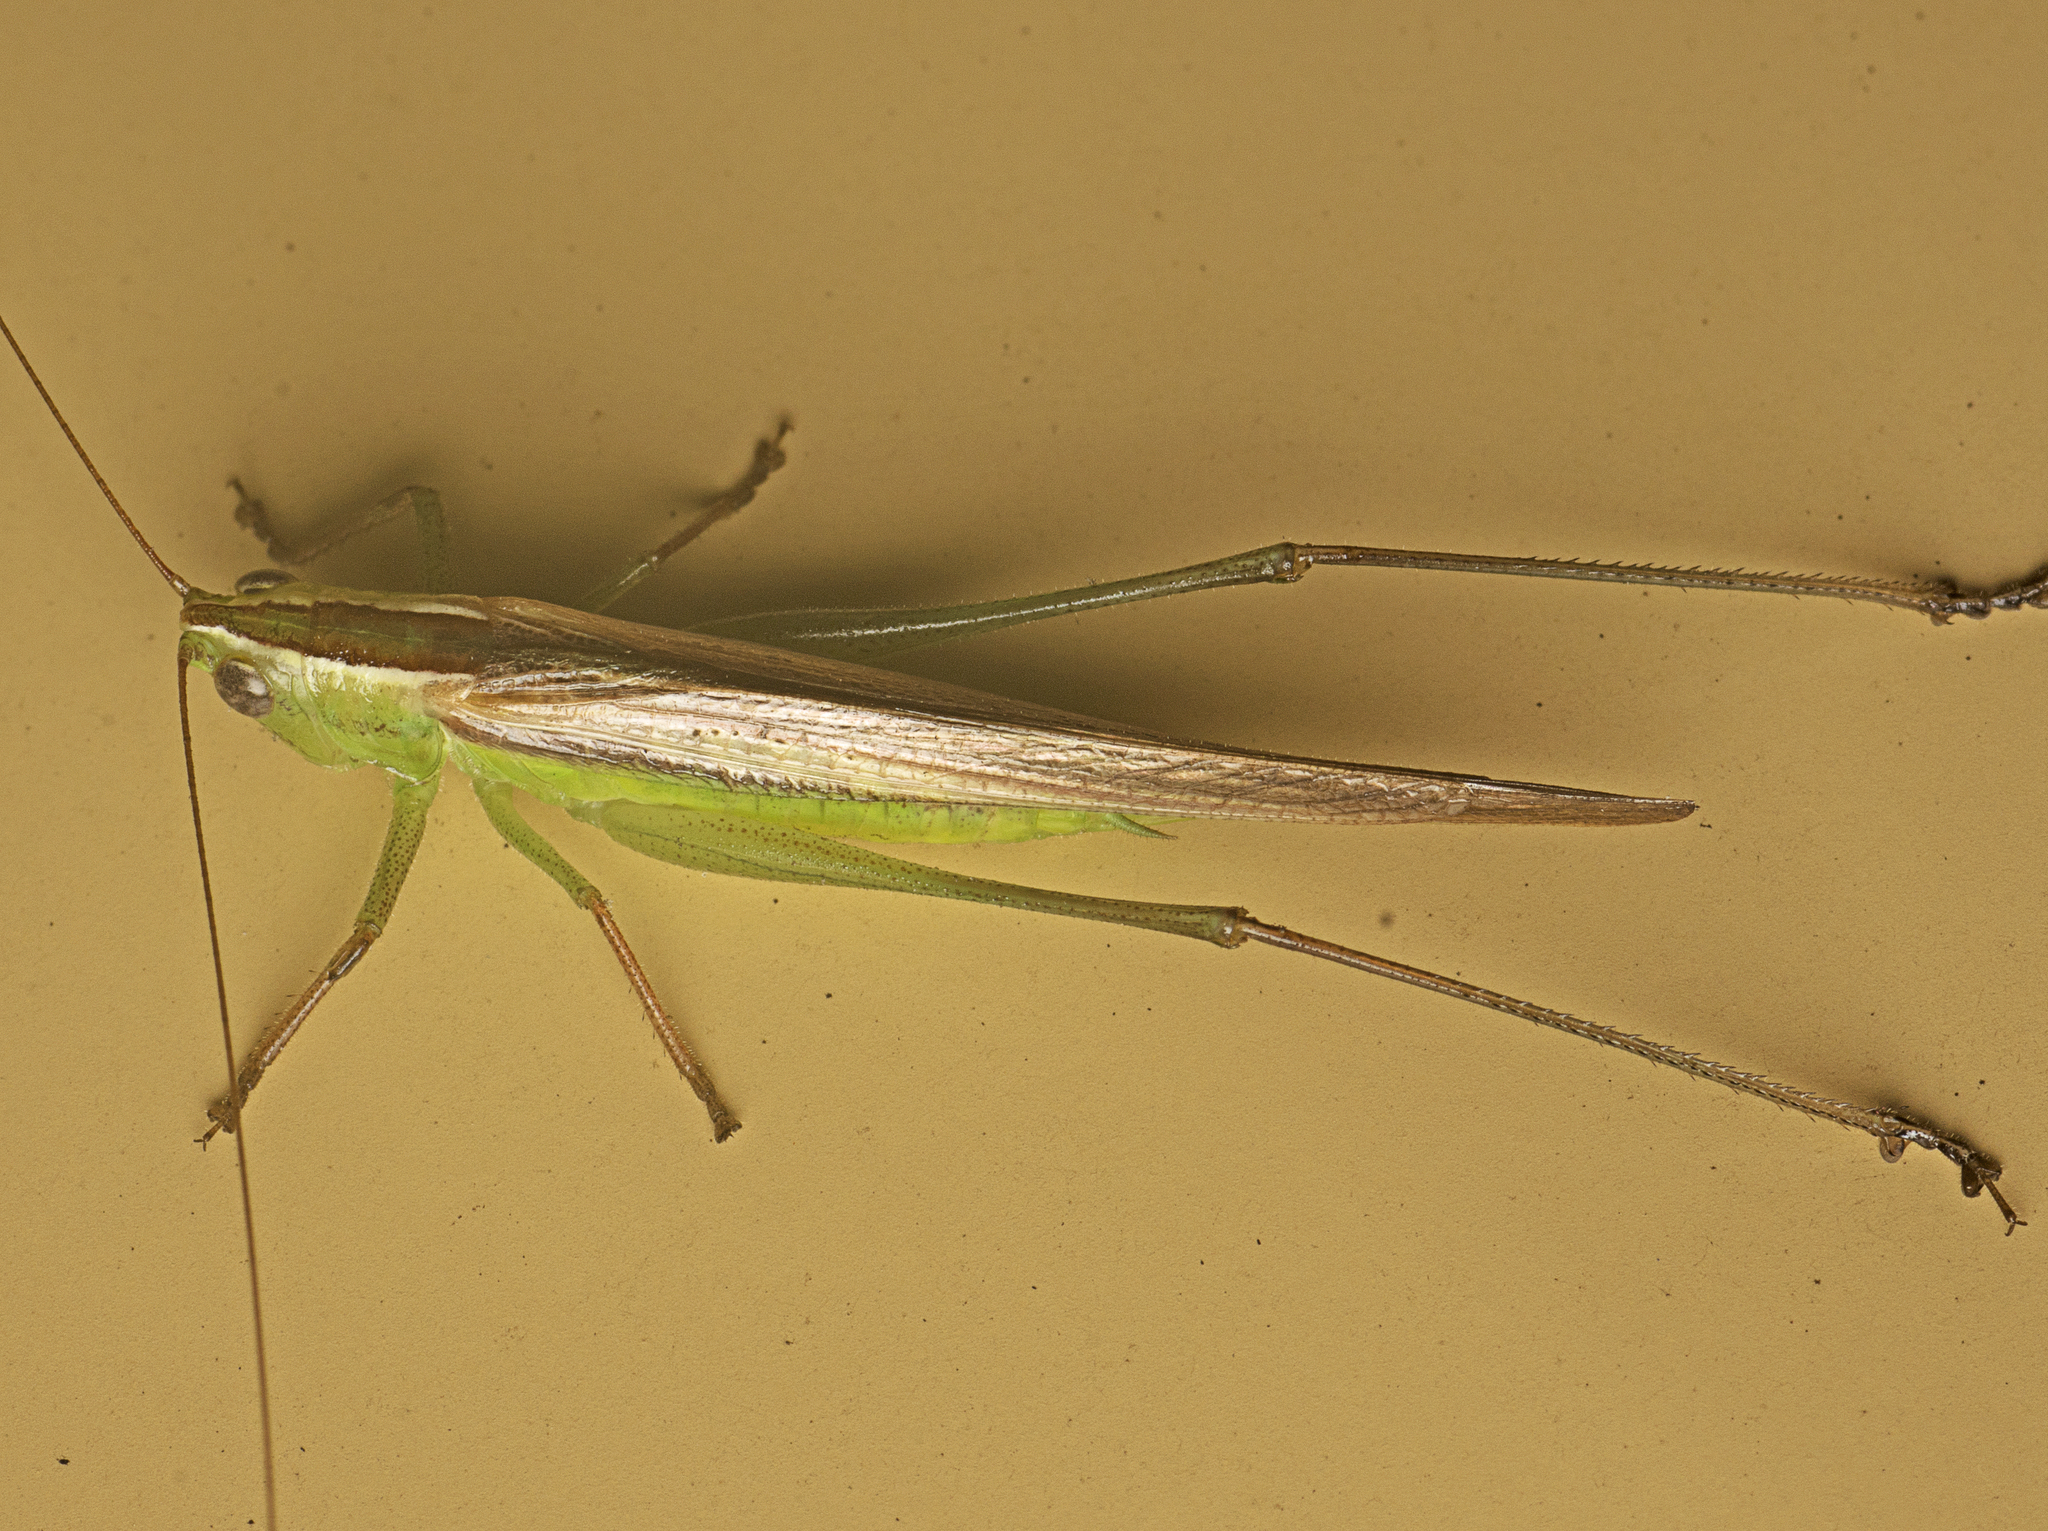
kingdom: Animalia
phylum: Arthropoda
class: Insecta
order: Orthoptera
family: Tettigoniidae
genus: Conocephalus
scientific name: Conocephalus upoluensis
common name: Upolu meadow katydid
